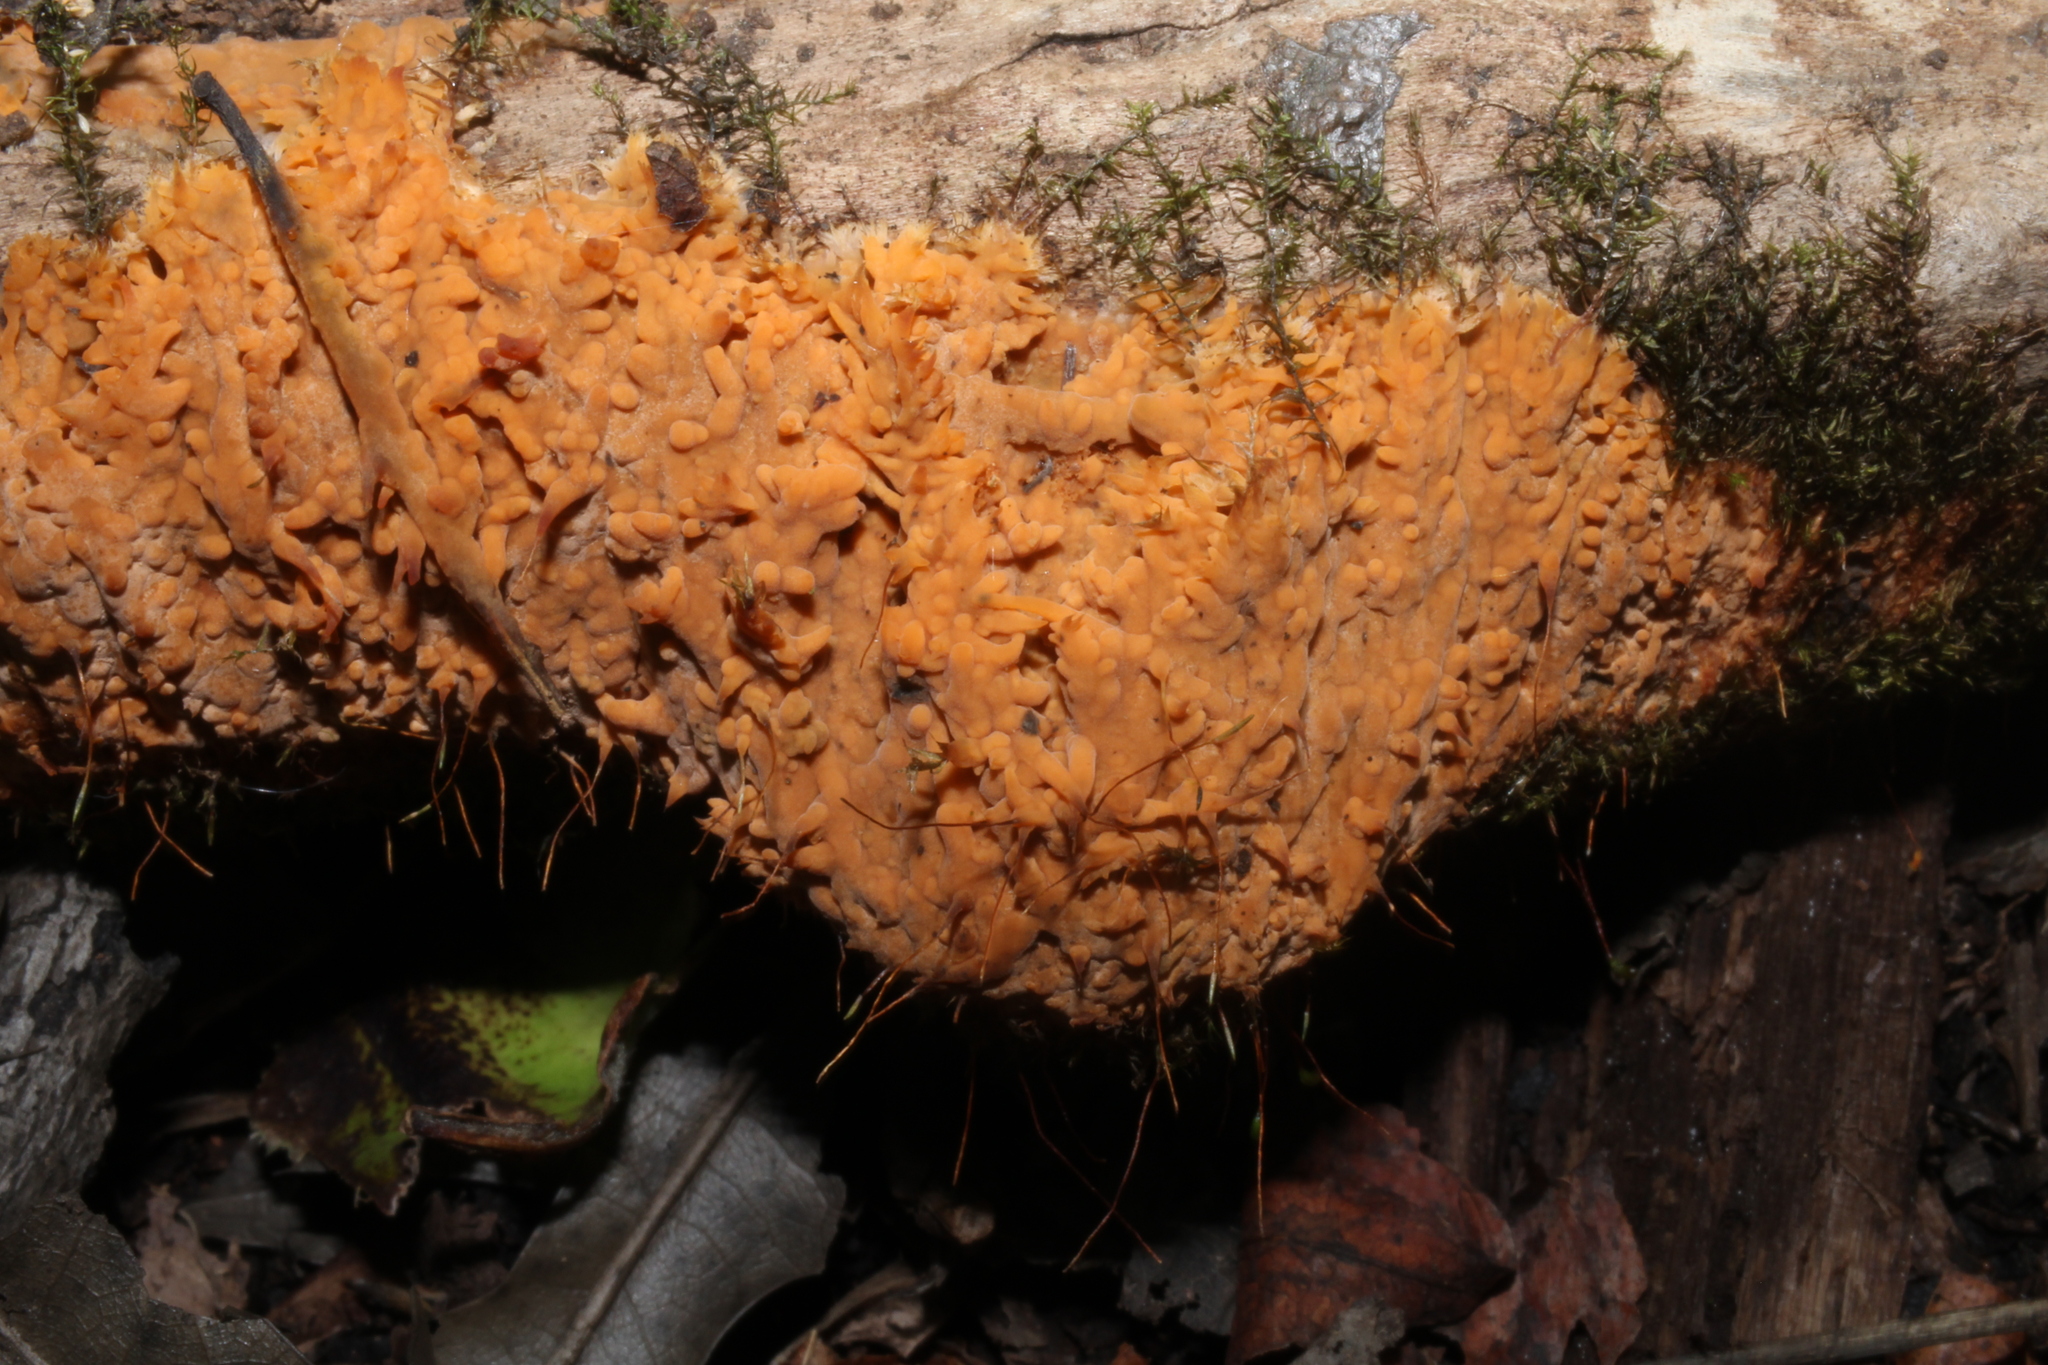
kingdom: Fungi
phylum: Basidiomycota
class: Agaricomycetes
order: Russulales
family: Peniophoraceae
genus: Dichostereum
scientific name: Dichostereum effuscatum
